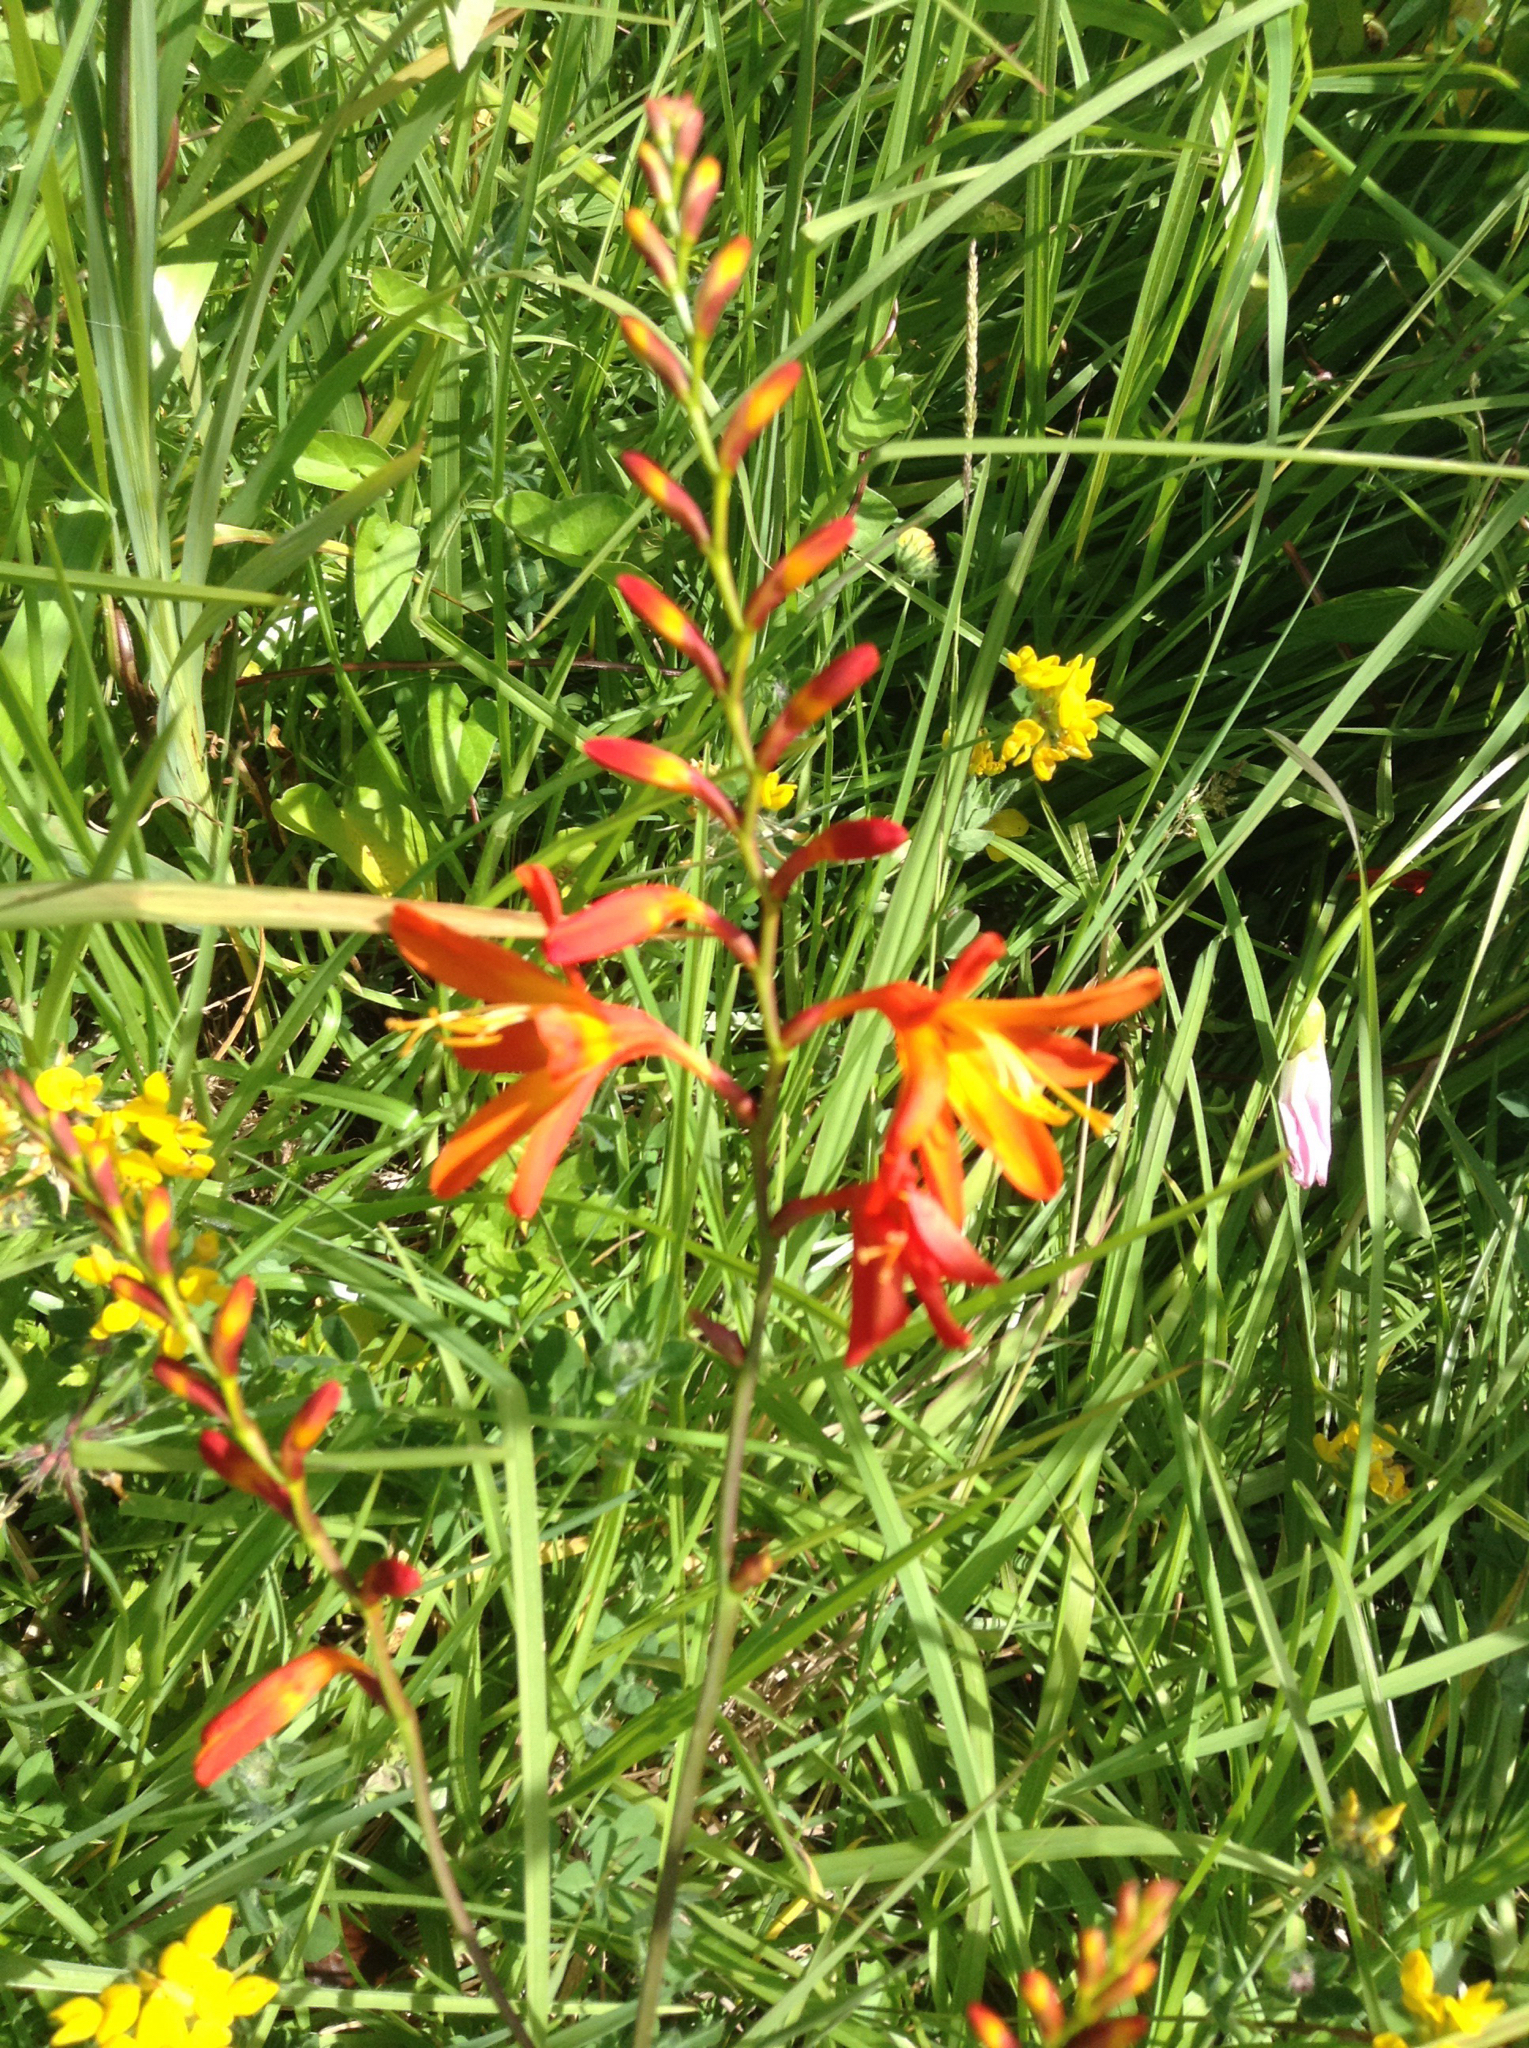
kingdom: Plantae
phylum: Tracheophyta
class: Liliopsida
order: Asparagales
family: Iridaceae
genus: Crocosmia
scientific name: Crocosmia crocosmiiflora
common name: Montbretia
